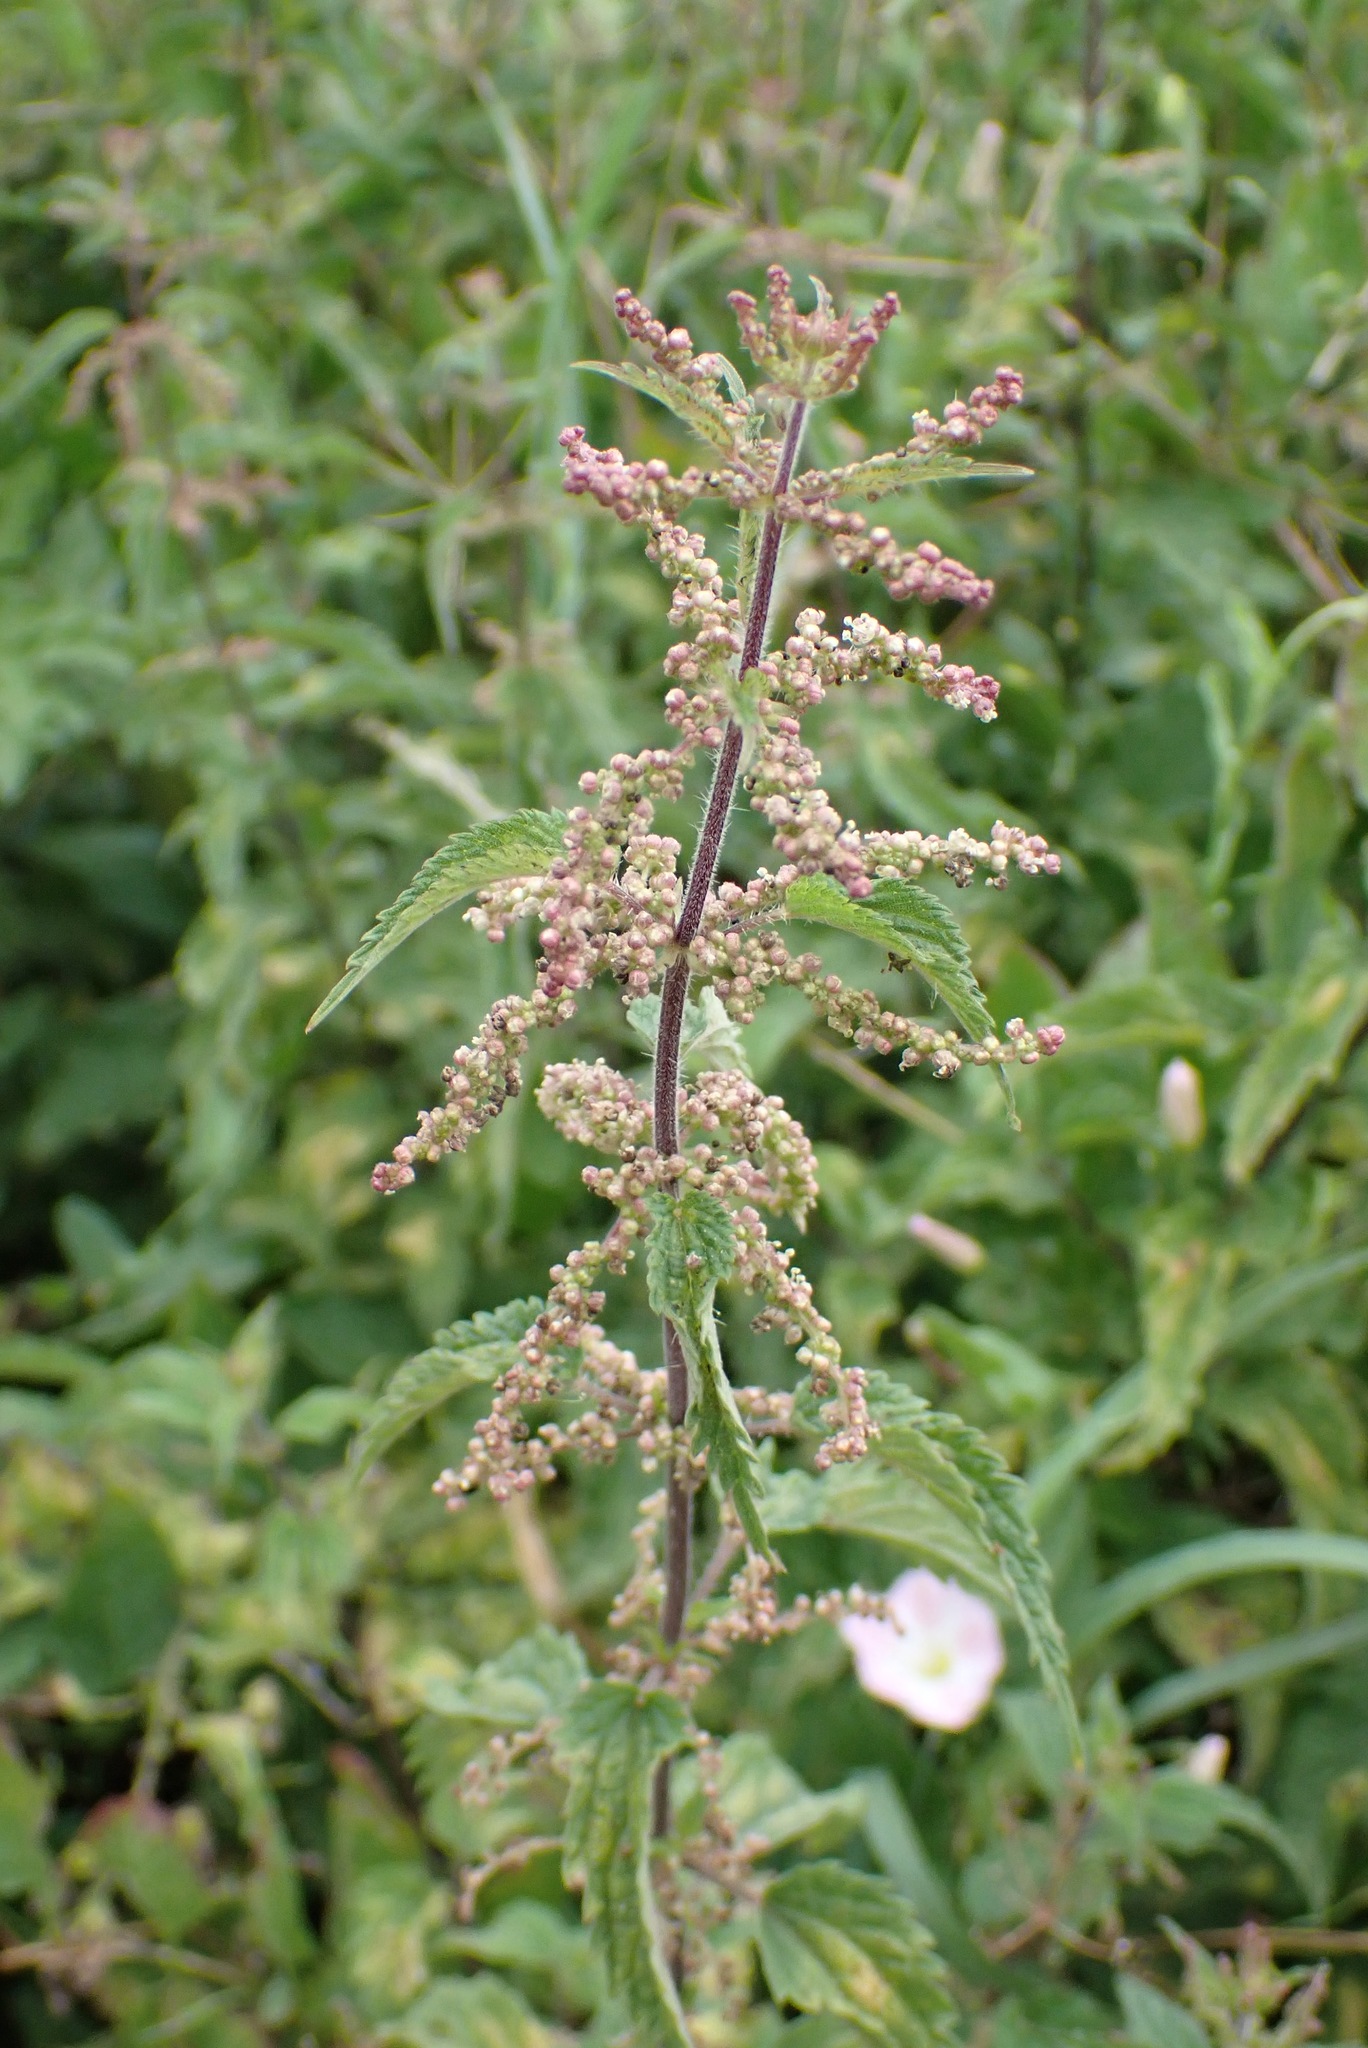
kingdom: Plantae
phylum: Tracheophyta
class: Magnoliopsida
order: Rosales
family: Urticaceae
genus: Urtica
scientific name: Urtica dioica
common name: Common nettle
